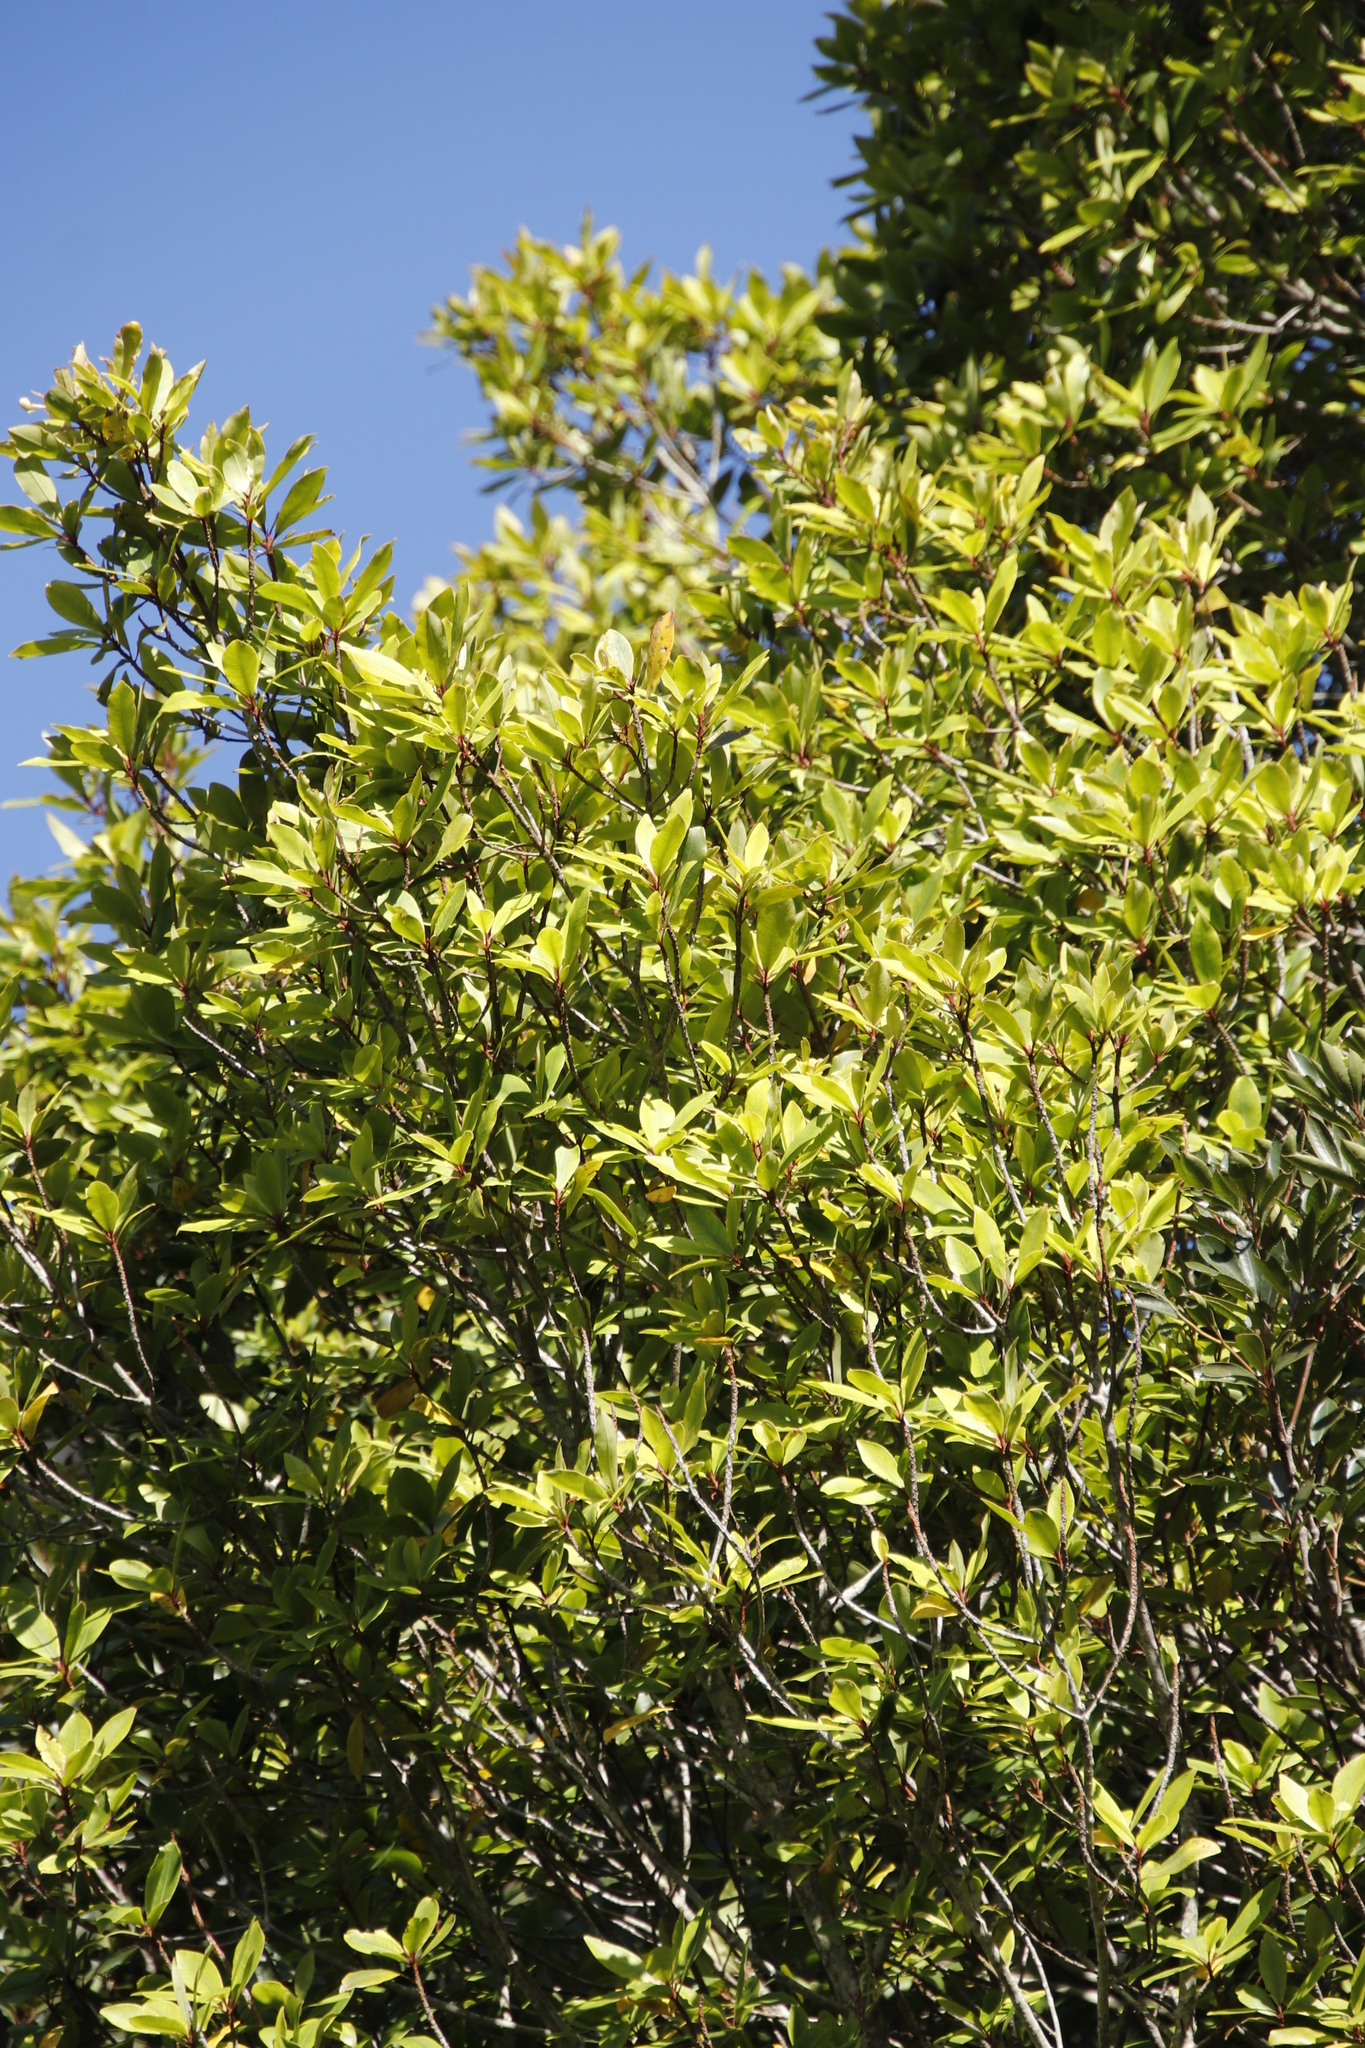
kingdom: Plantae
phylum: Tracheophyta
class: Magnoliopsida
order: Ericales
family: Primulaceae
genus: Myrsine
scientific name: Myrsine melanophloeos
